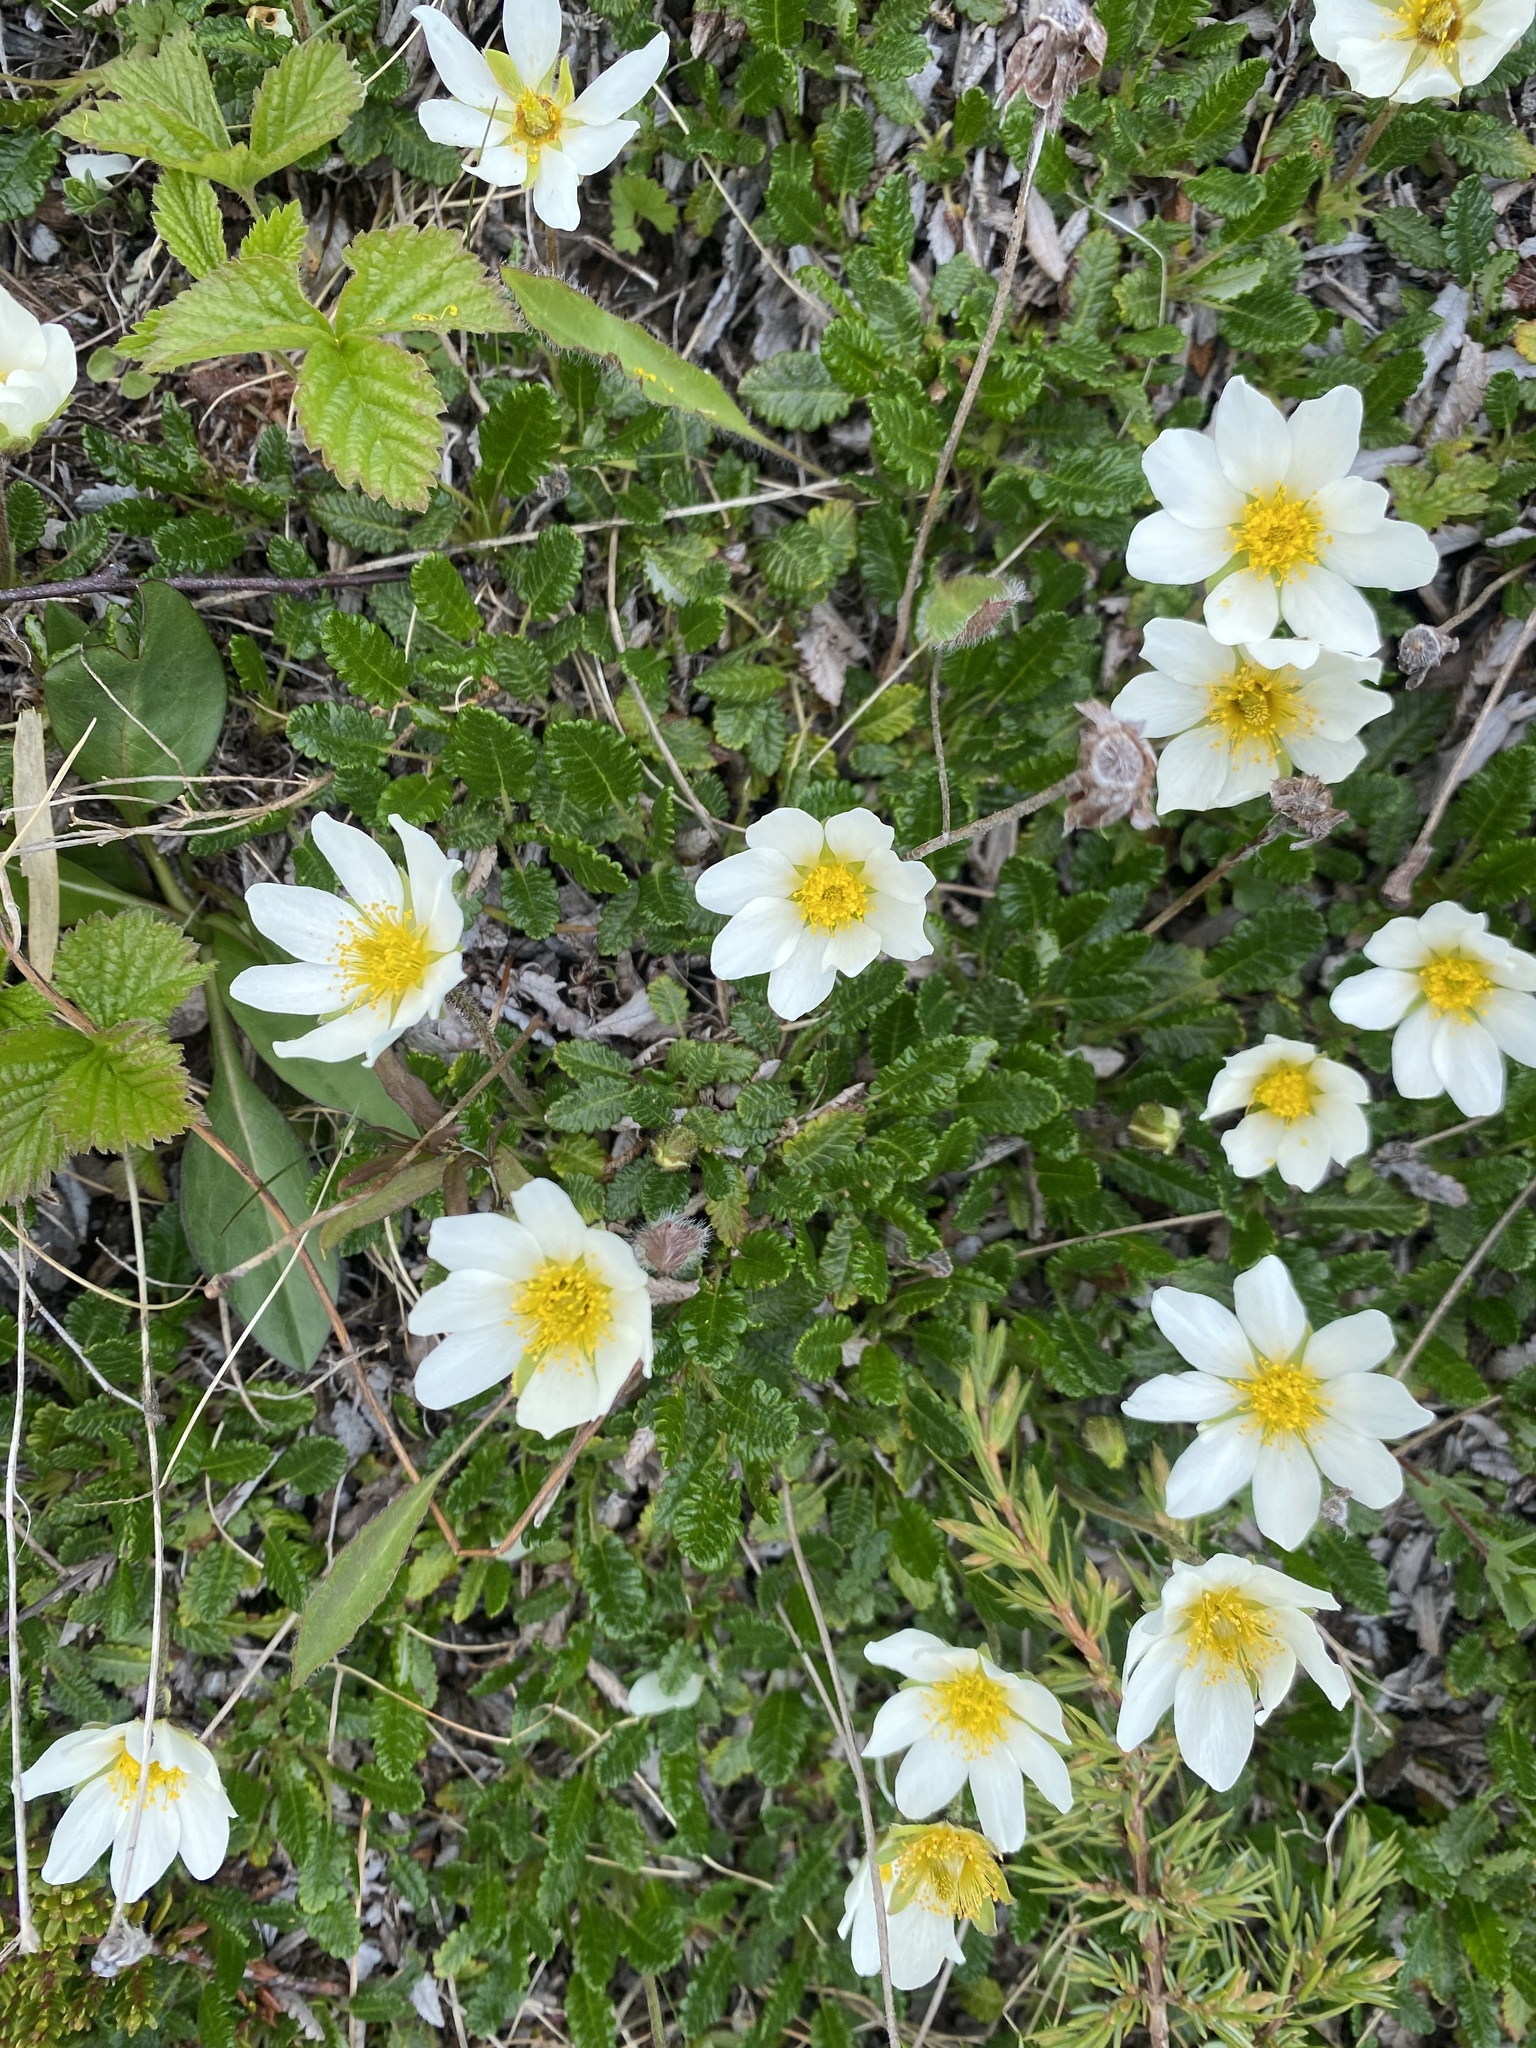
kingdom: Plantae
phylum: Tracheophyta
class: Magnoliopsida
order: Rosales
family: Rosaceae
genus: Dryas
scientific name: Dryas octopetala
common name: Eight-petal mountain-avens
